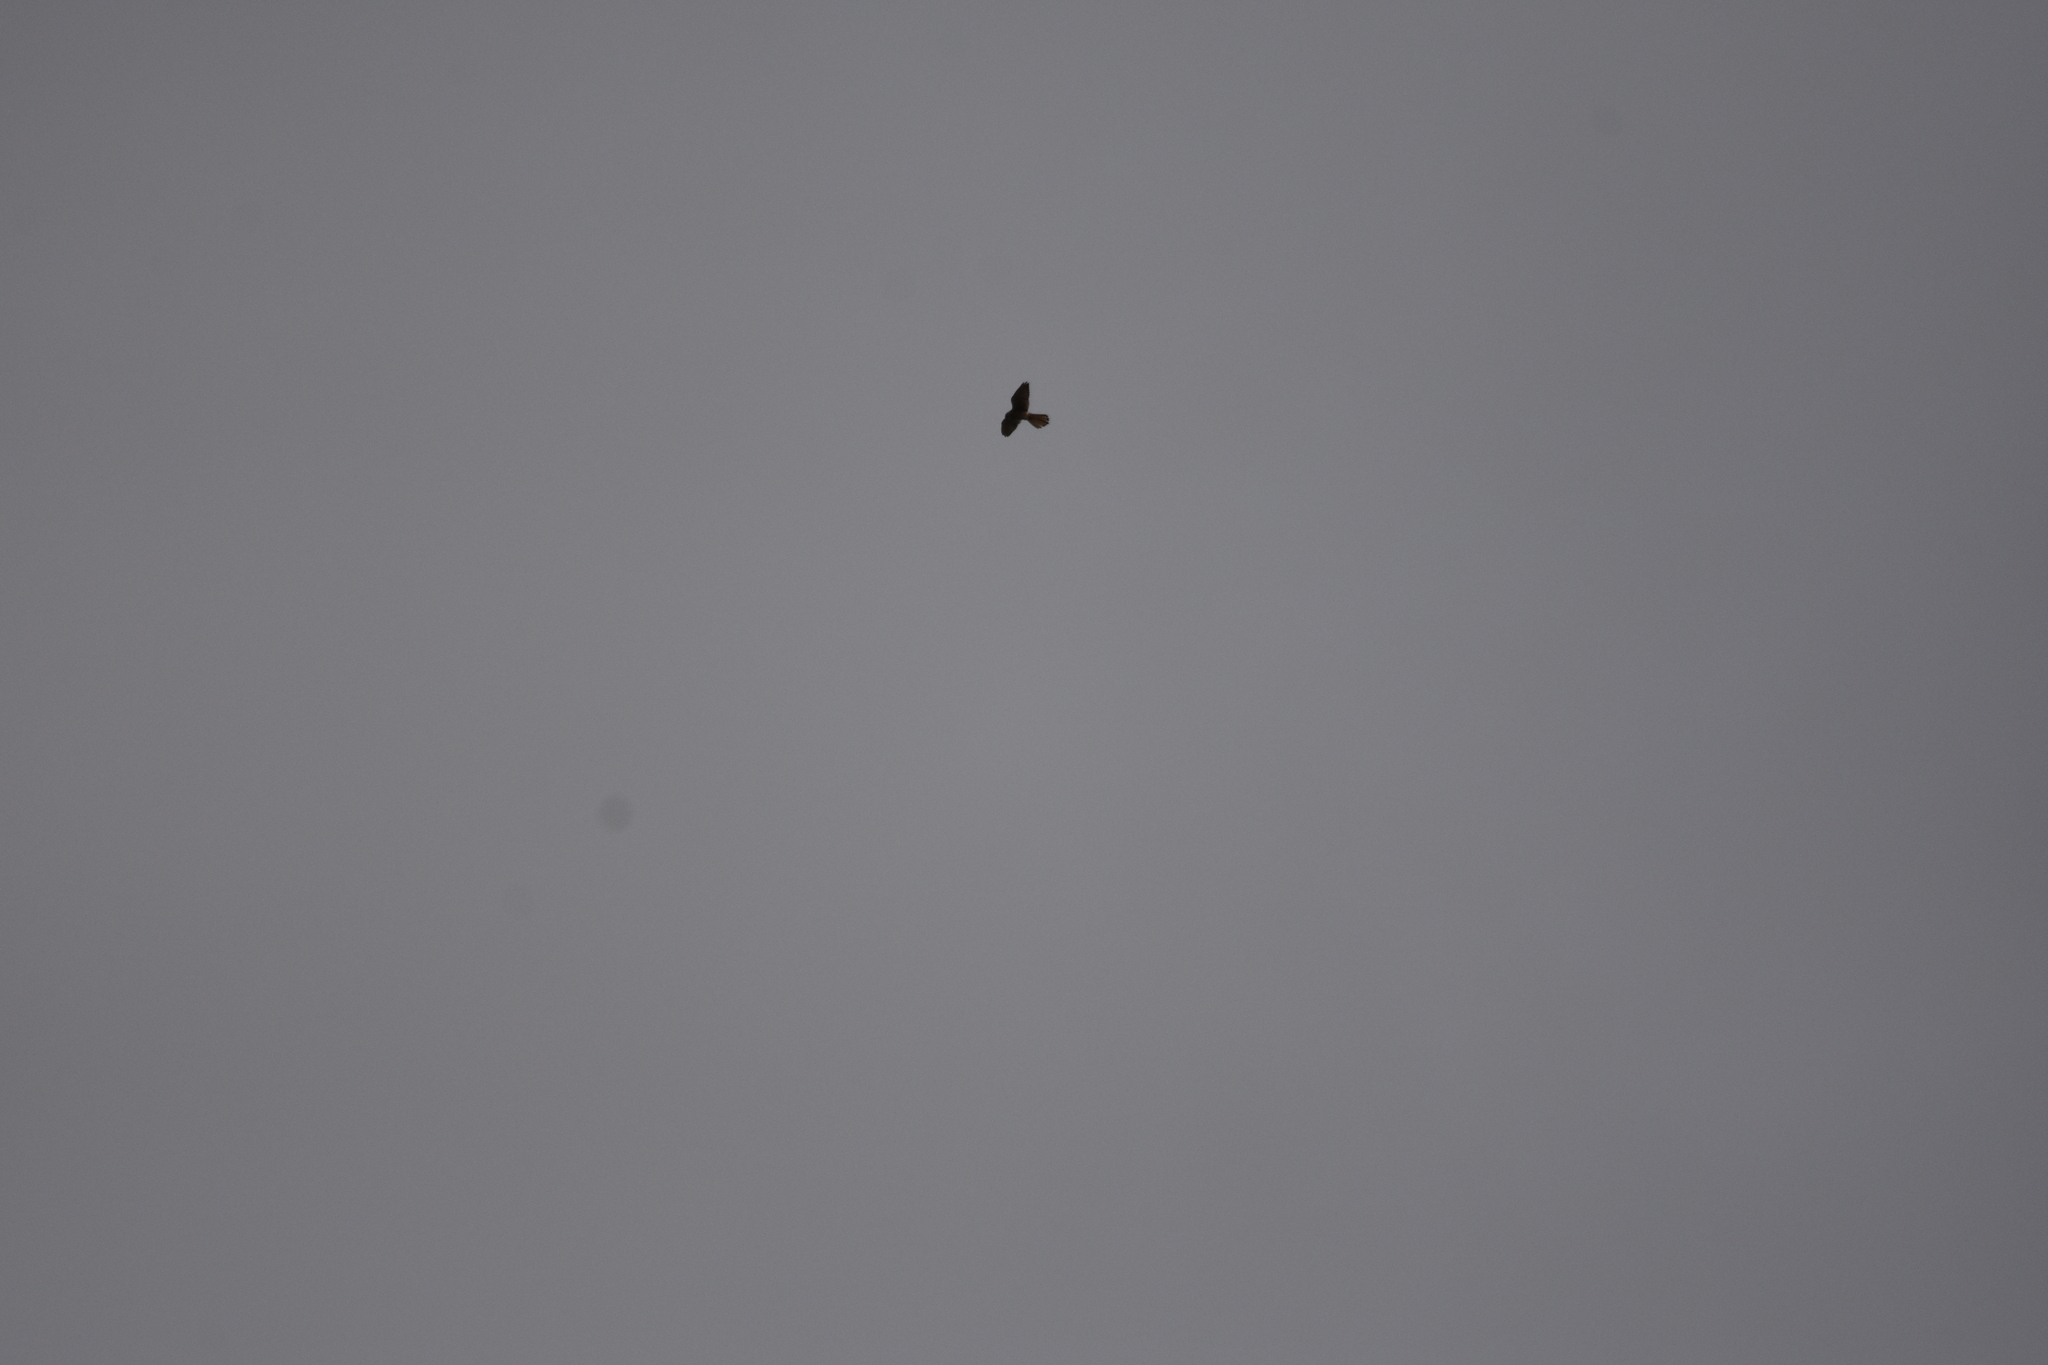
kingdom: Animalia
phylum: Chordata
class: Aves
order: Falconiformes
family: Falconidae
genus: Falco
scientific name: Falco tinnunculus
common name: Common kestrel
